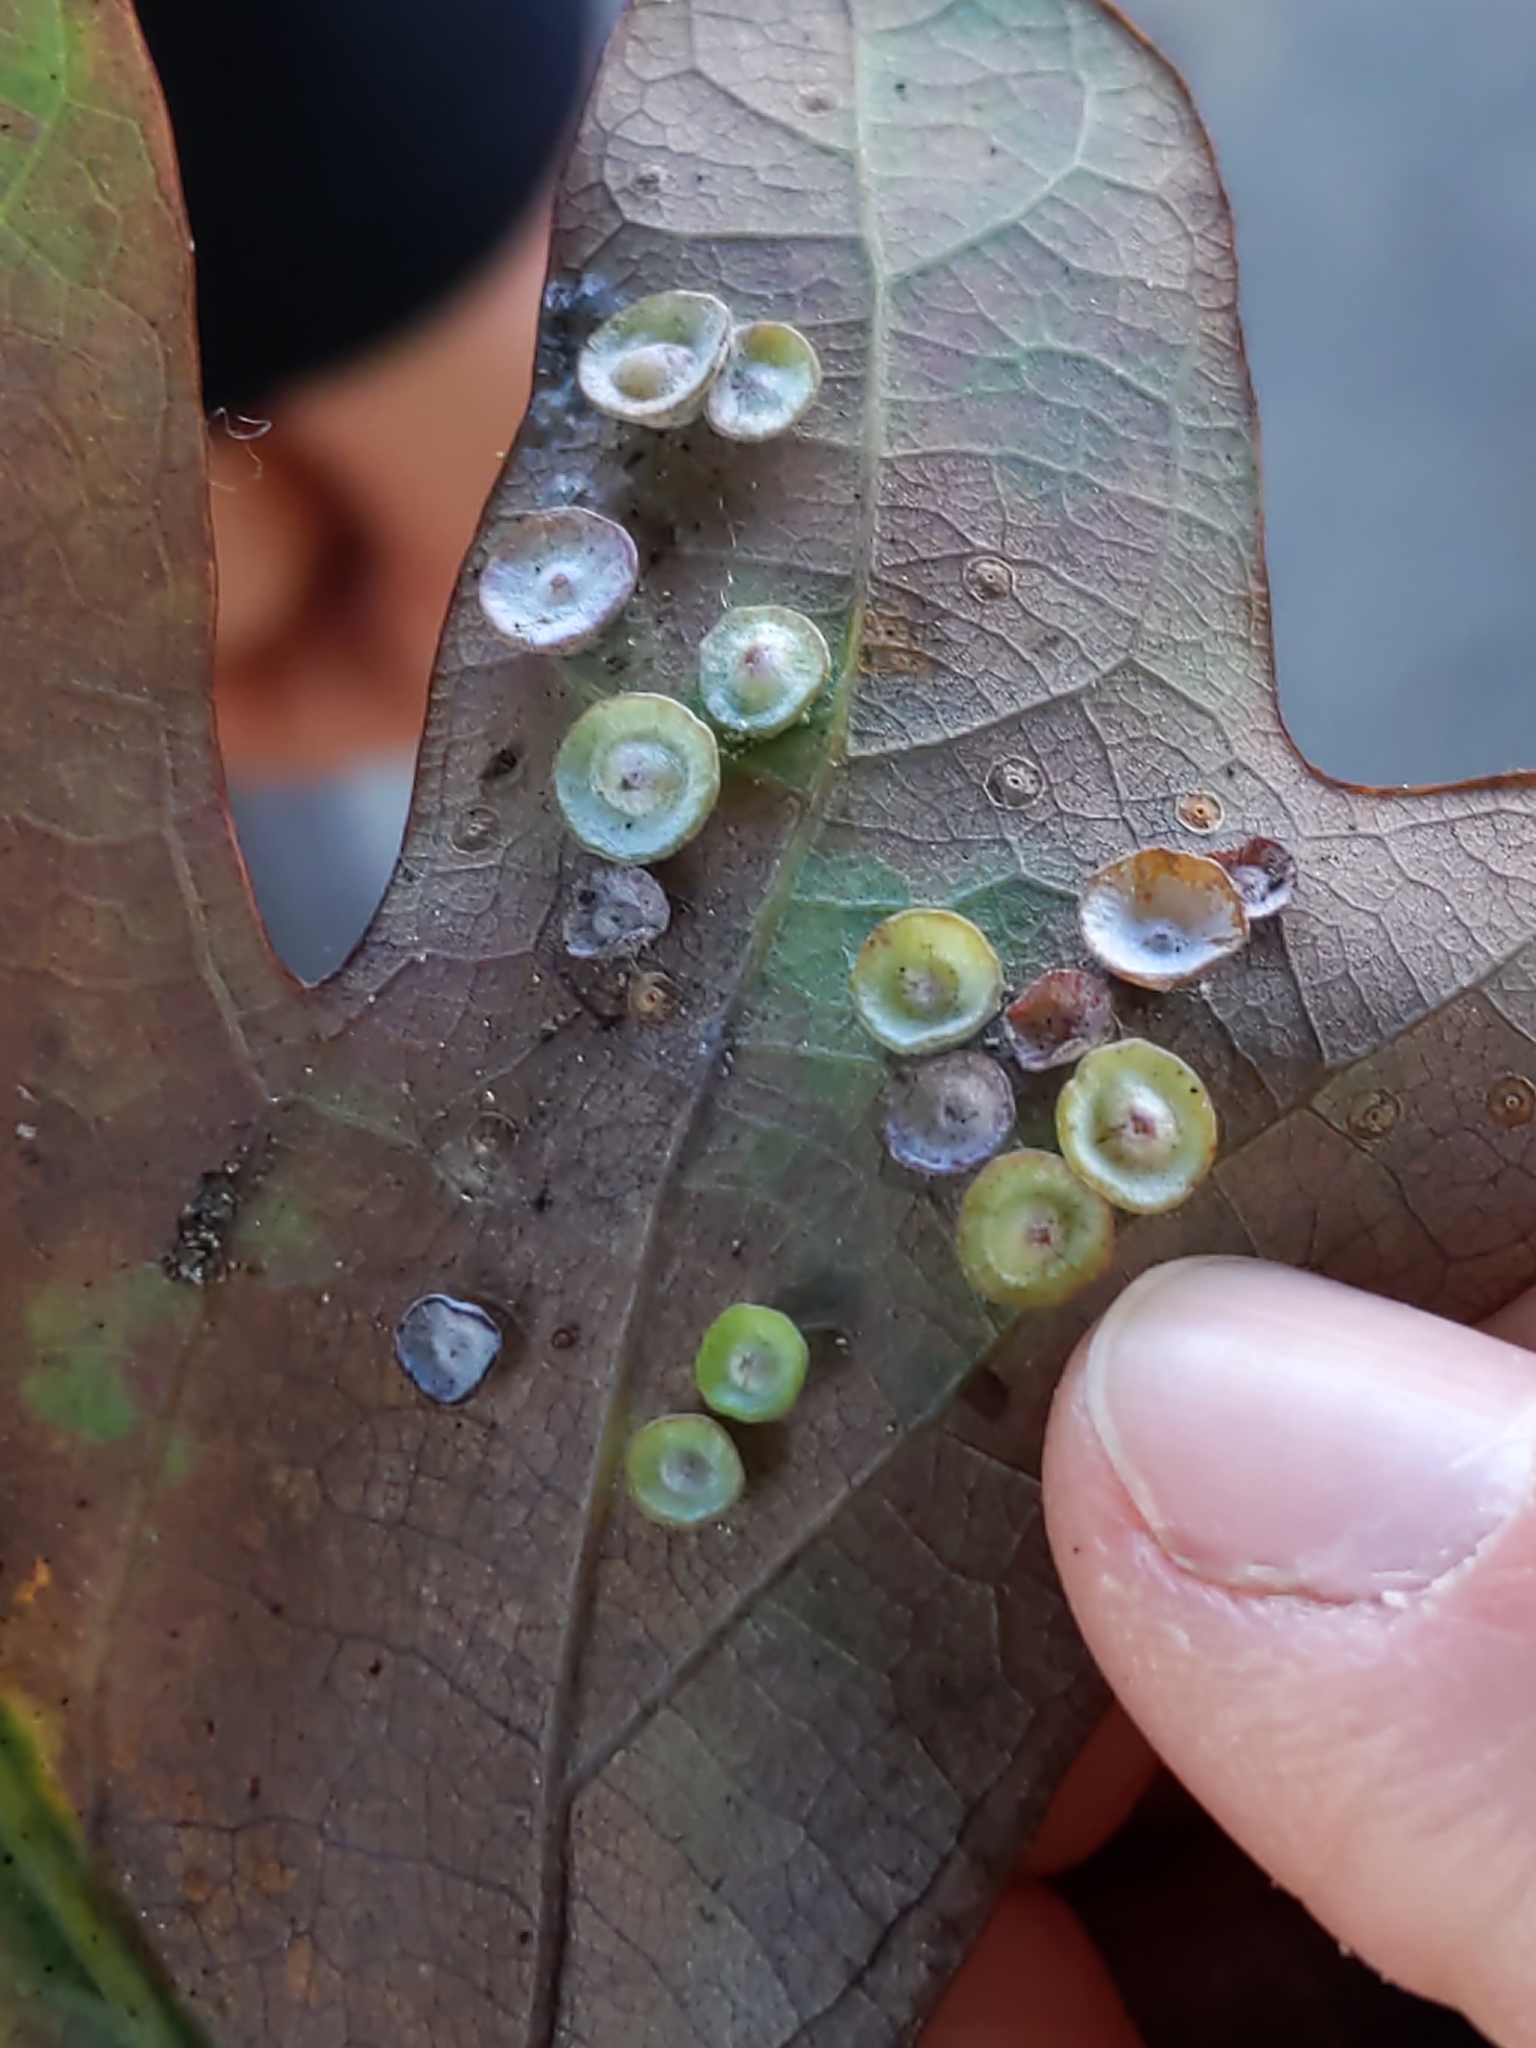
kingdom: Animalia
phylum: Arthropoda
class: Insecta
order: Hymenoptera
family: Cynipidae
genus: Phylloteras
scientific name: Phylloteras poculum
